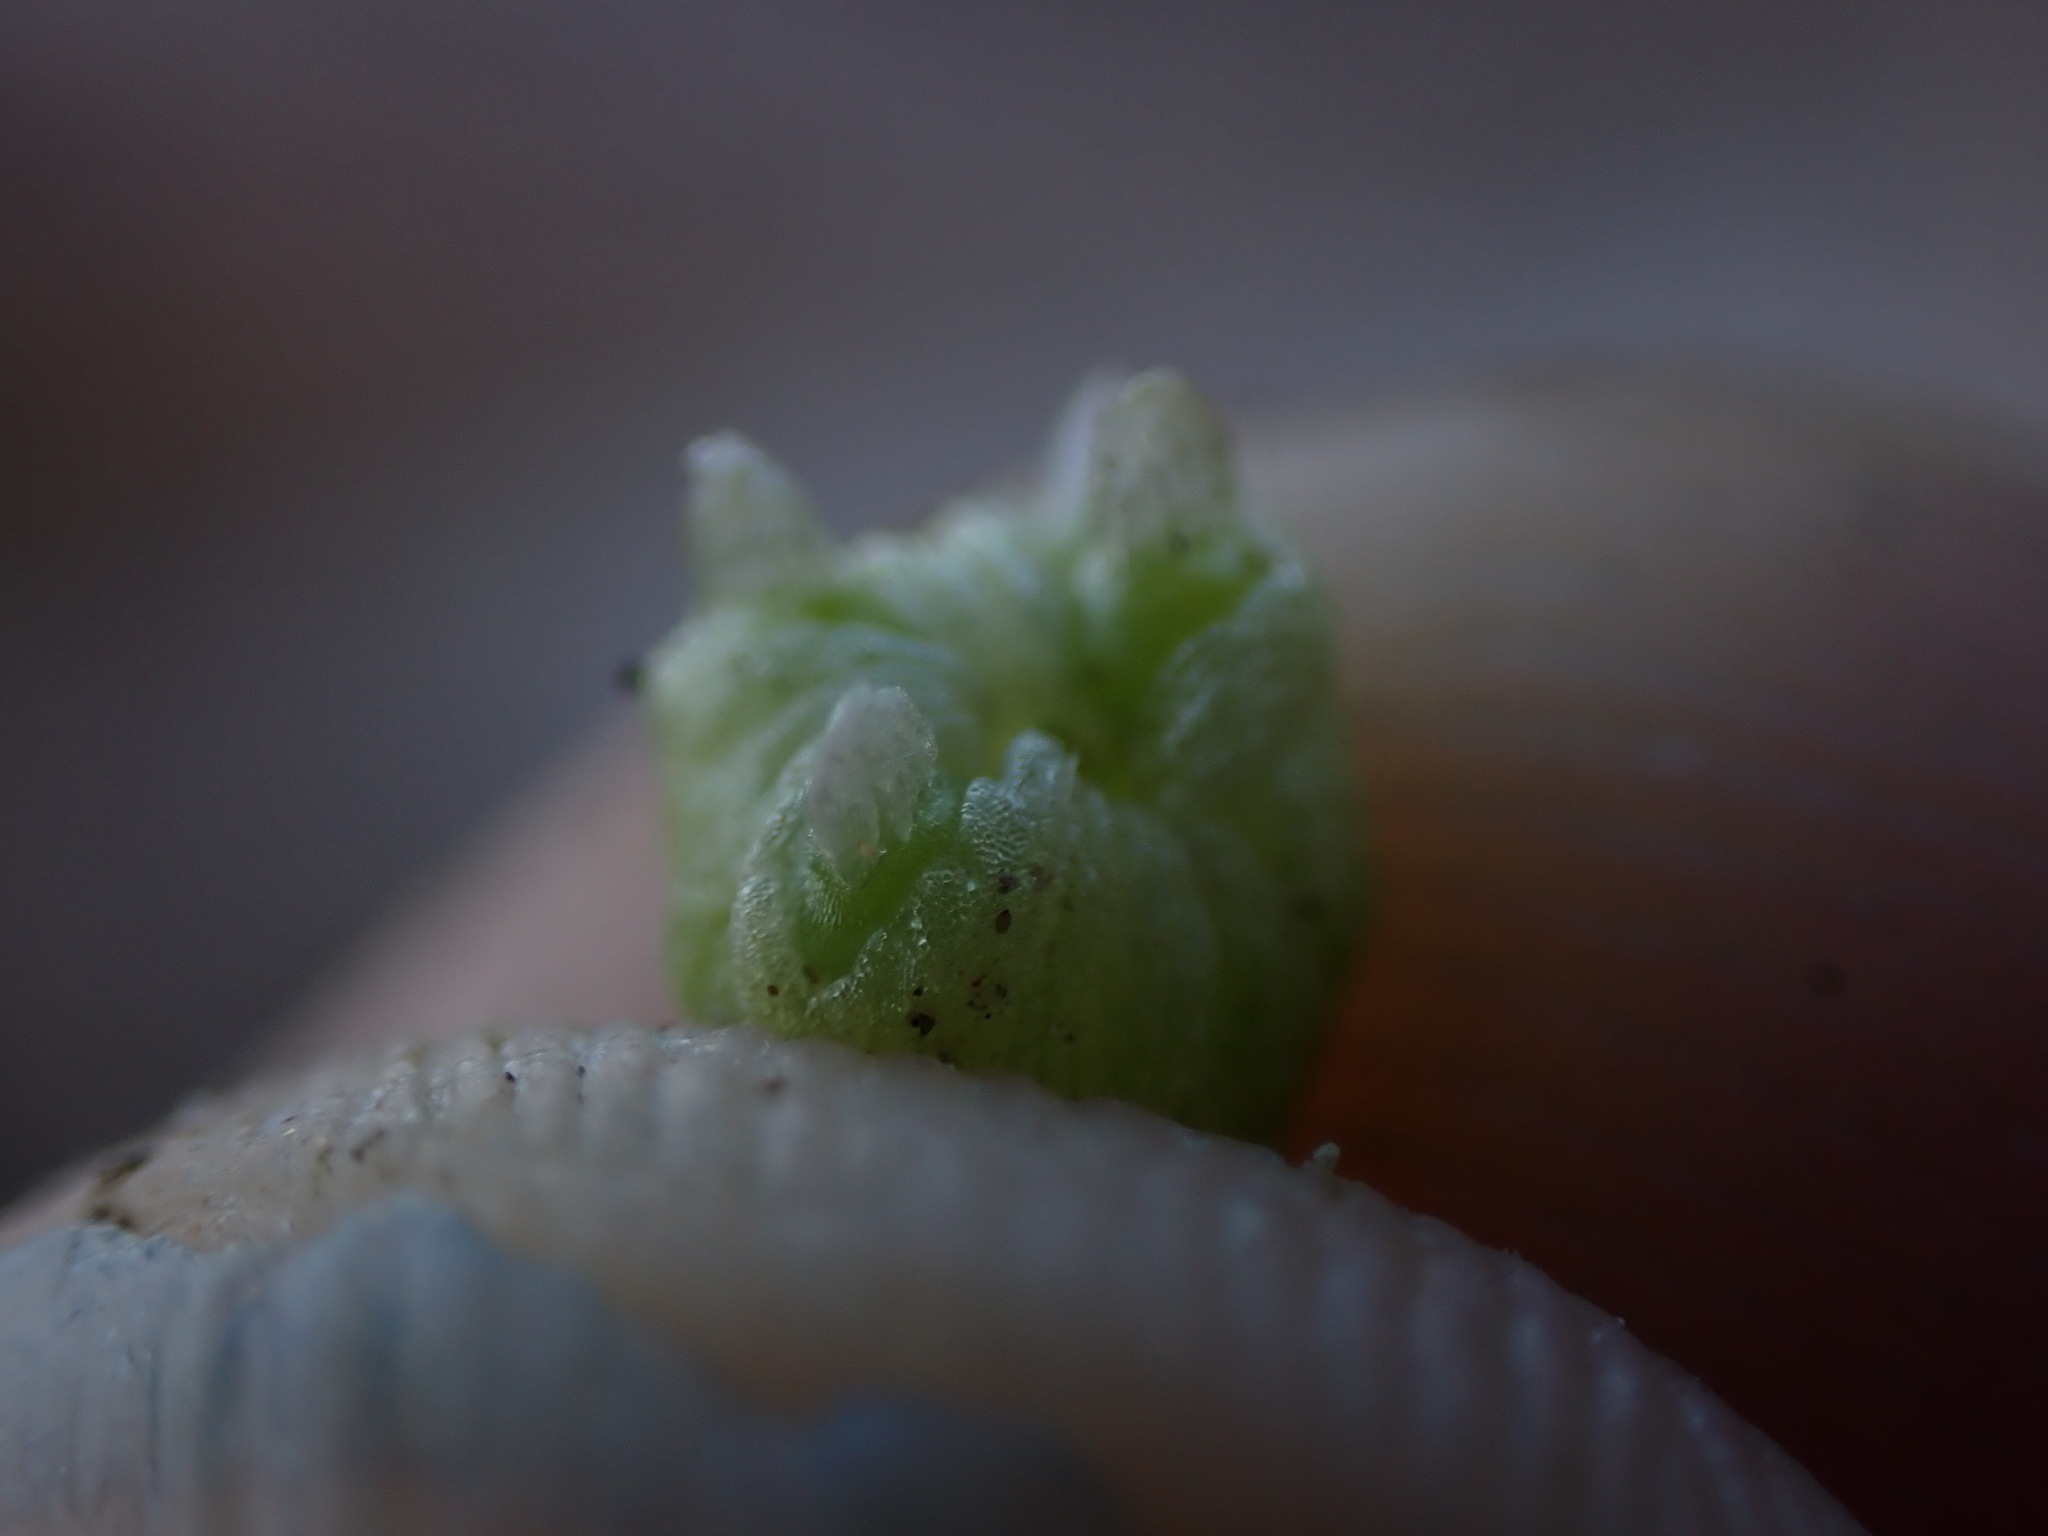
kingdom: Plantae
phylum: Marchantiophyta
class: Marchantiopsida
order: Marchantiales
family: Aytoniaceae
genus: Asterella
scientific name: Asterella palmeri
